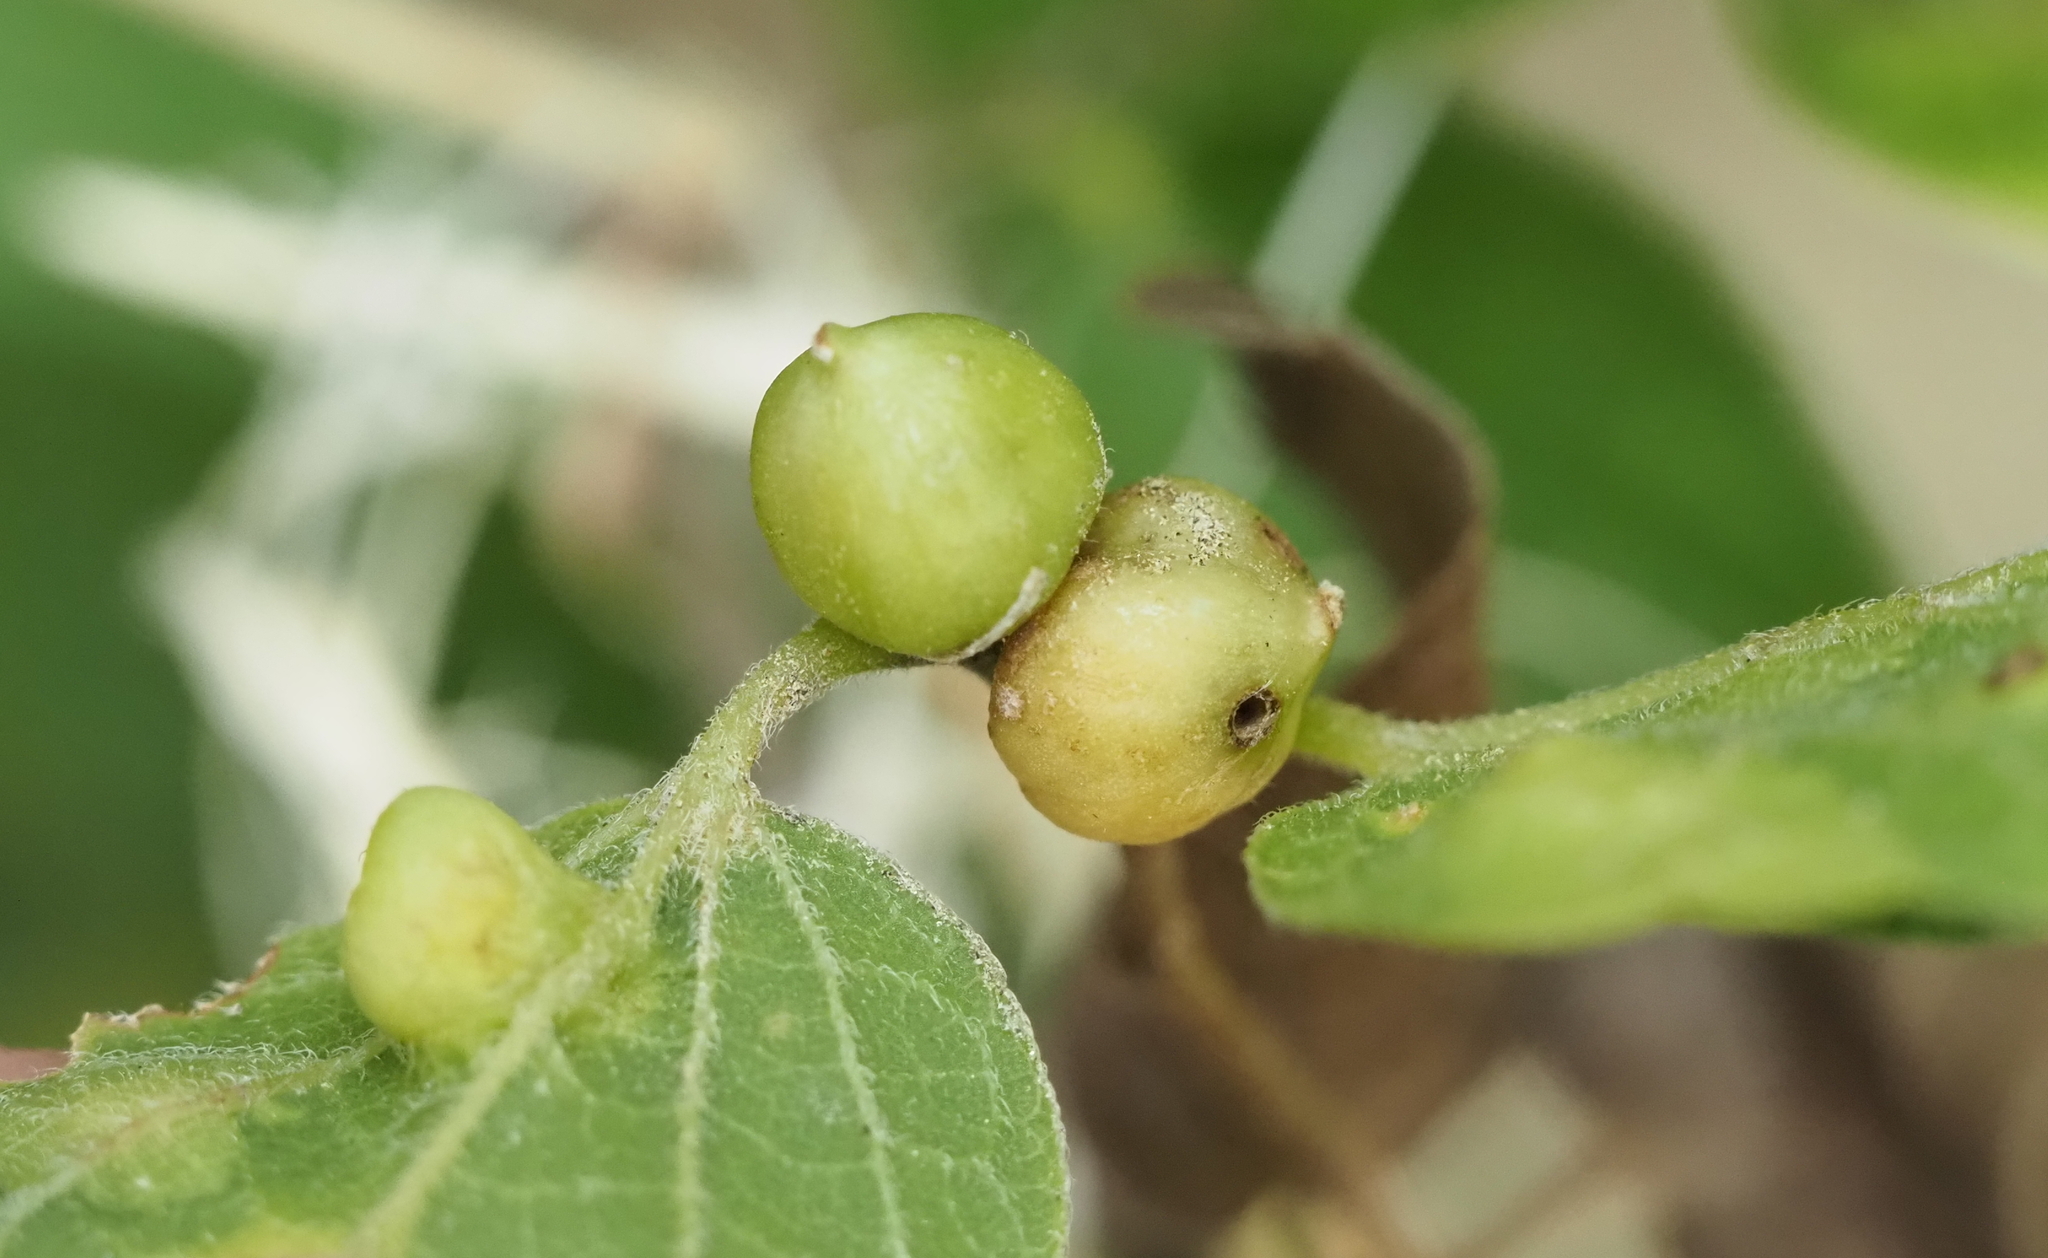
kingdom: Animalia
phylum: Arthropoda
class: Insecta
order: Diptera
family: Cecidomyiidae
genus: Celticecis
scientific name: Celticecis connata
